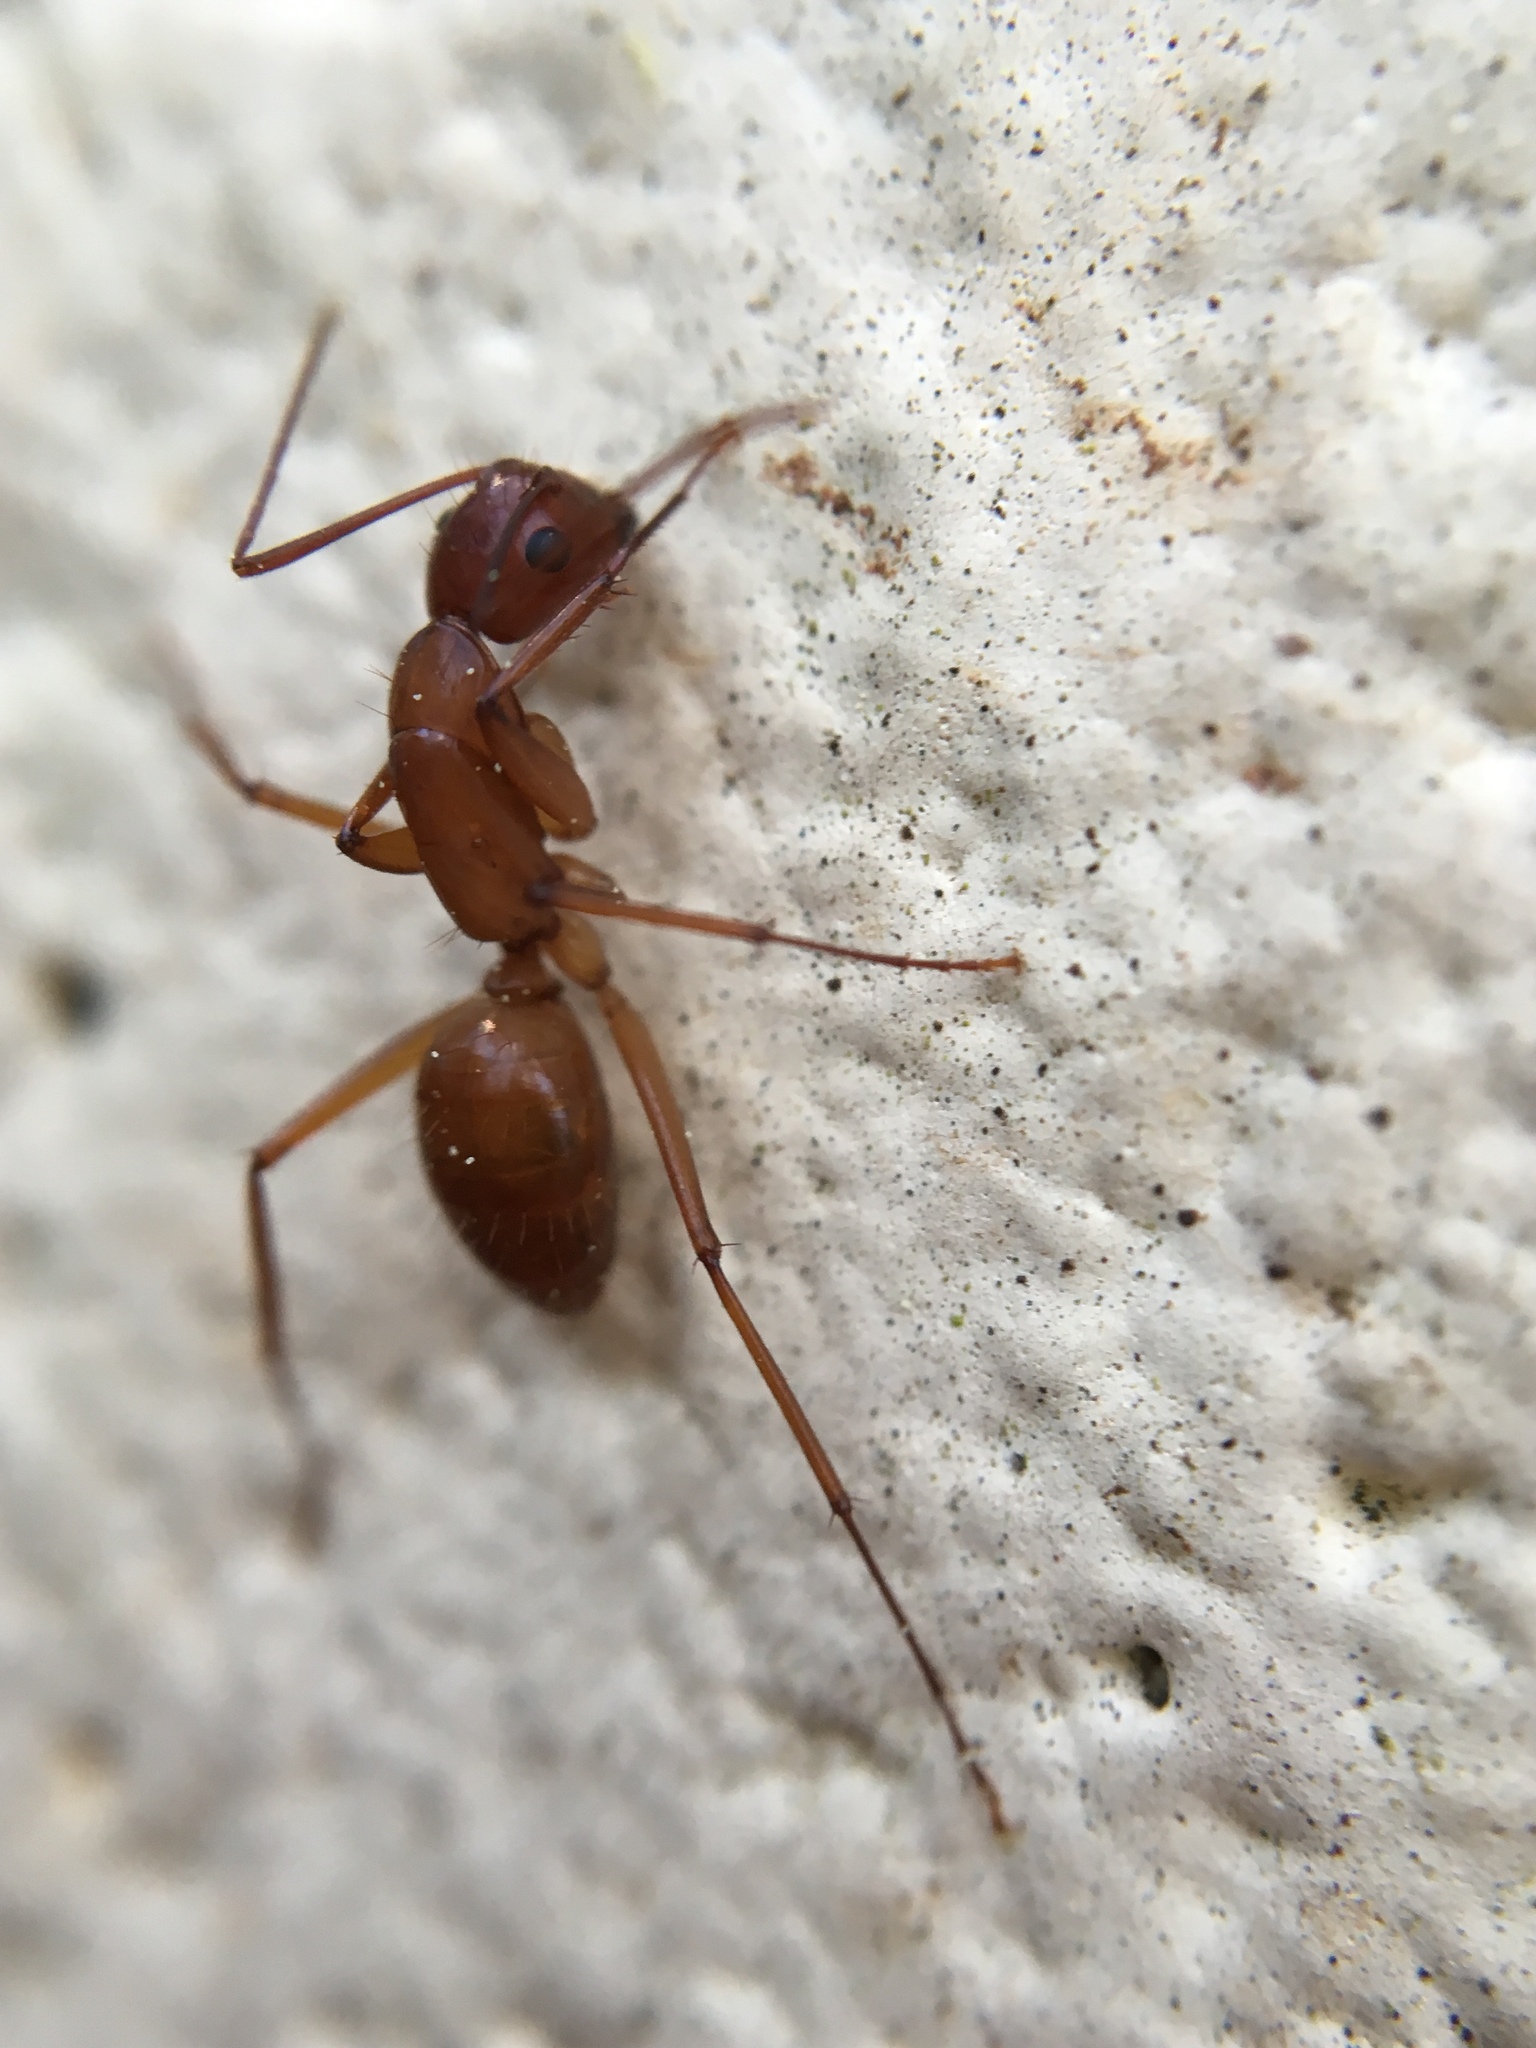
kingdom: Animalia
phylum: Arthropoda
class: Insecta
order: Hymenoptera
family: Formicidae
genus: Camponotus
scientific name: Camponotus castaneus
